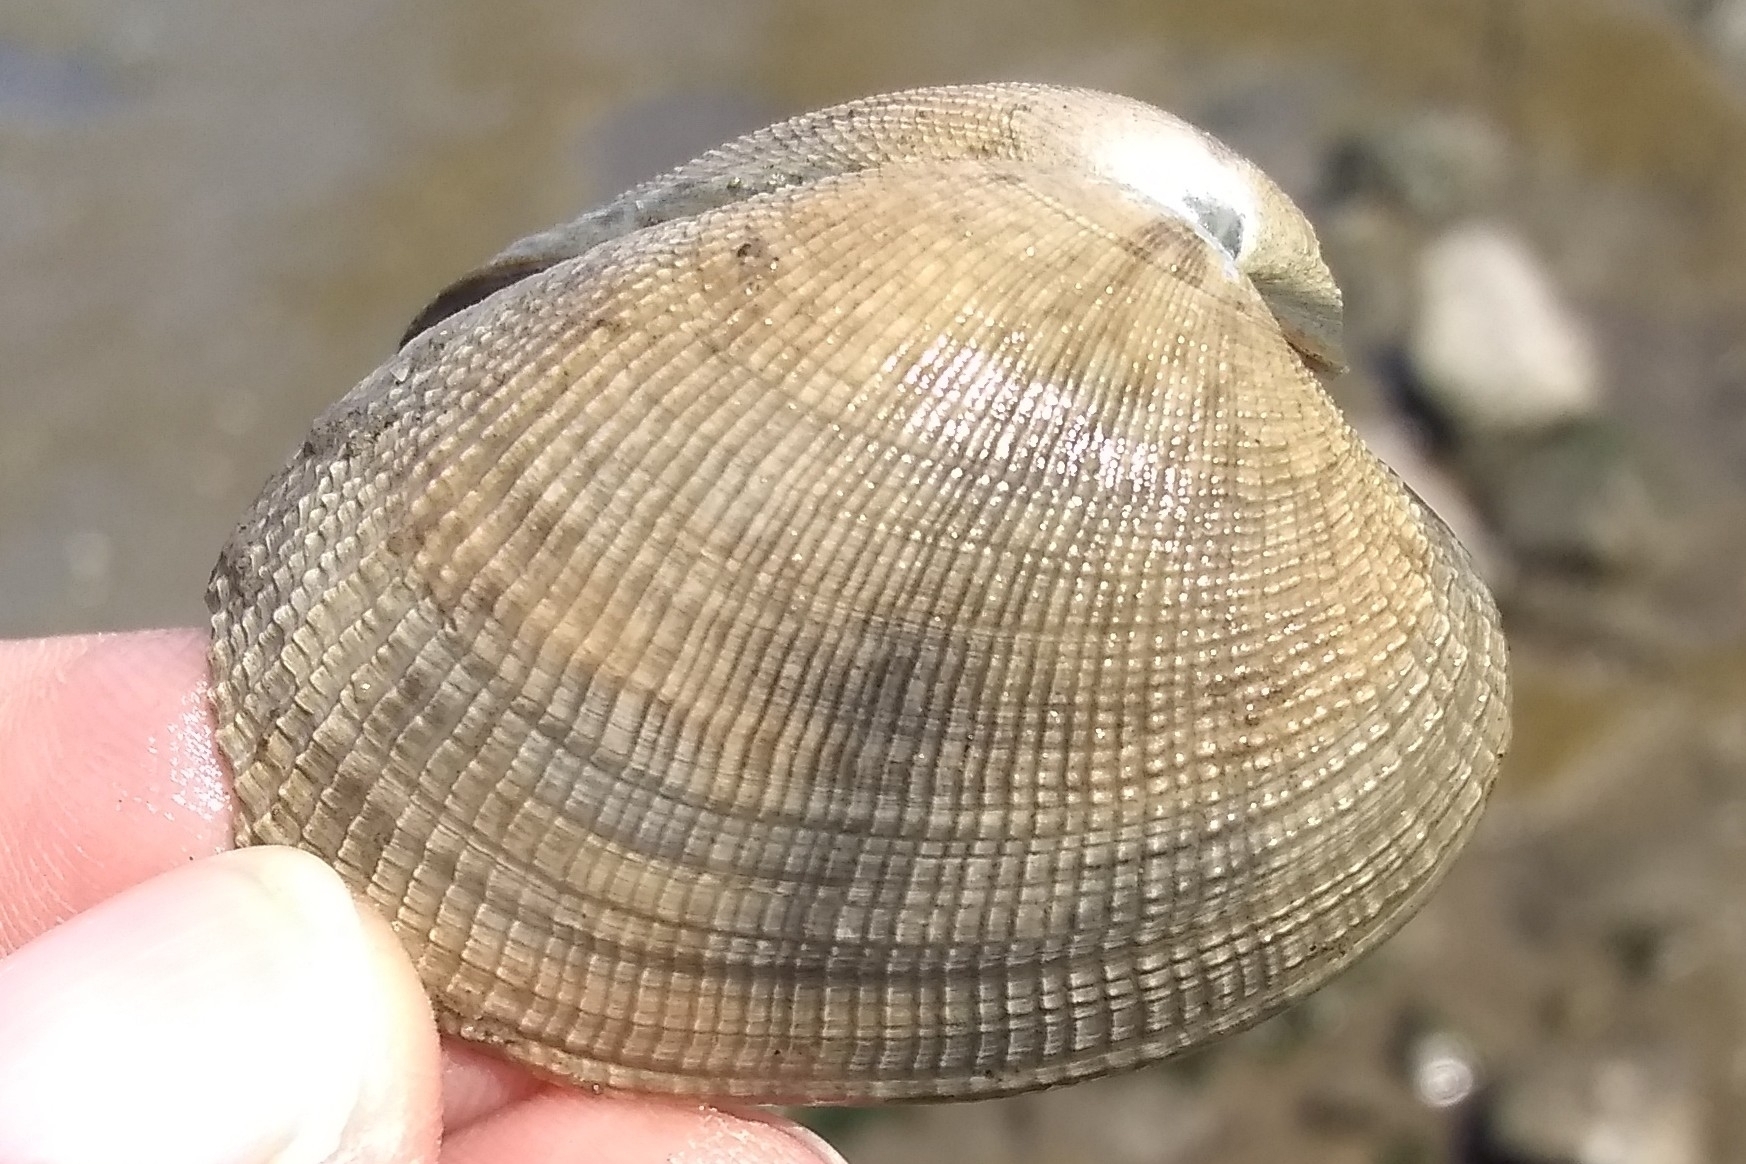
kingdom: Animalia
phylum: Mollusca
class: Bivalvia
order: Venerida
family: Veneridae
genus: Ruditapes
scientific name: Ruditapes philippinarum
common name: Manila clam
